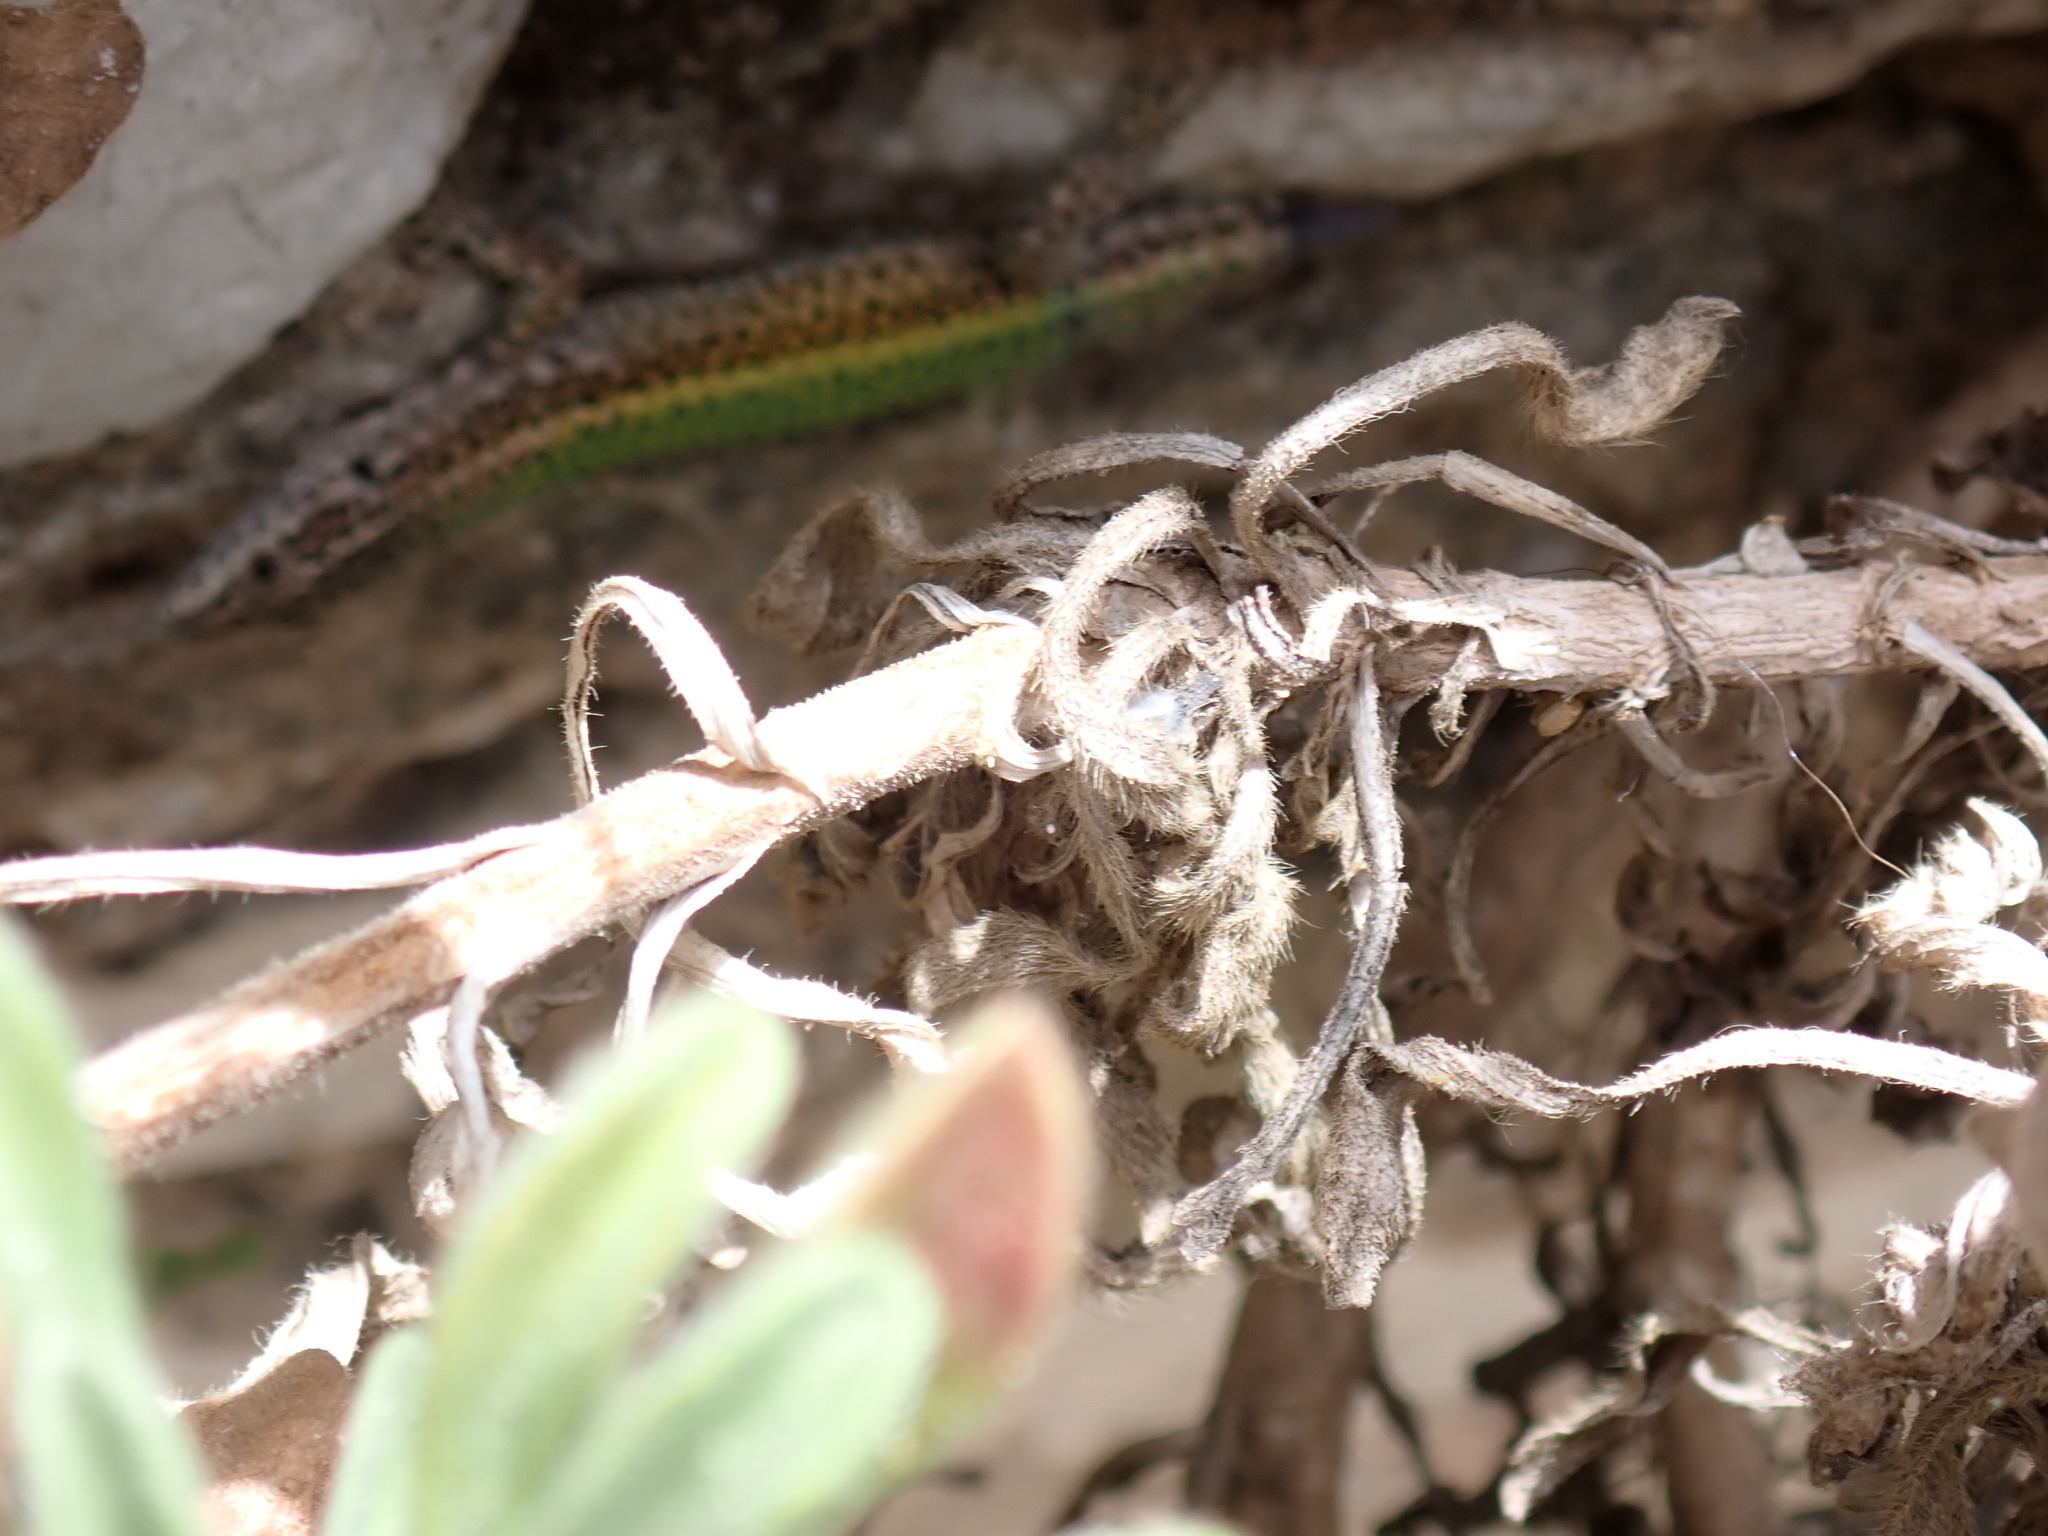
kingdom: Animalia
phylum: Chordata
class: Squamata
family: Lacertidae
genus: Podarcis
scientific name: Podarcis vaucheri
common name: Vaucher's wall lizard
